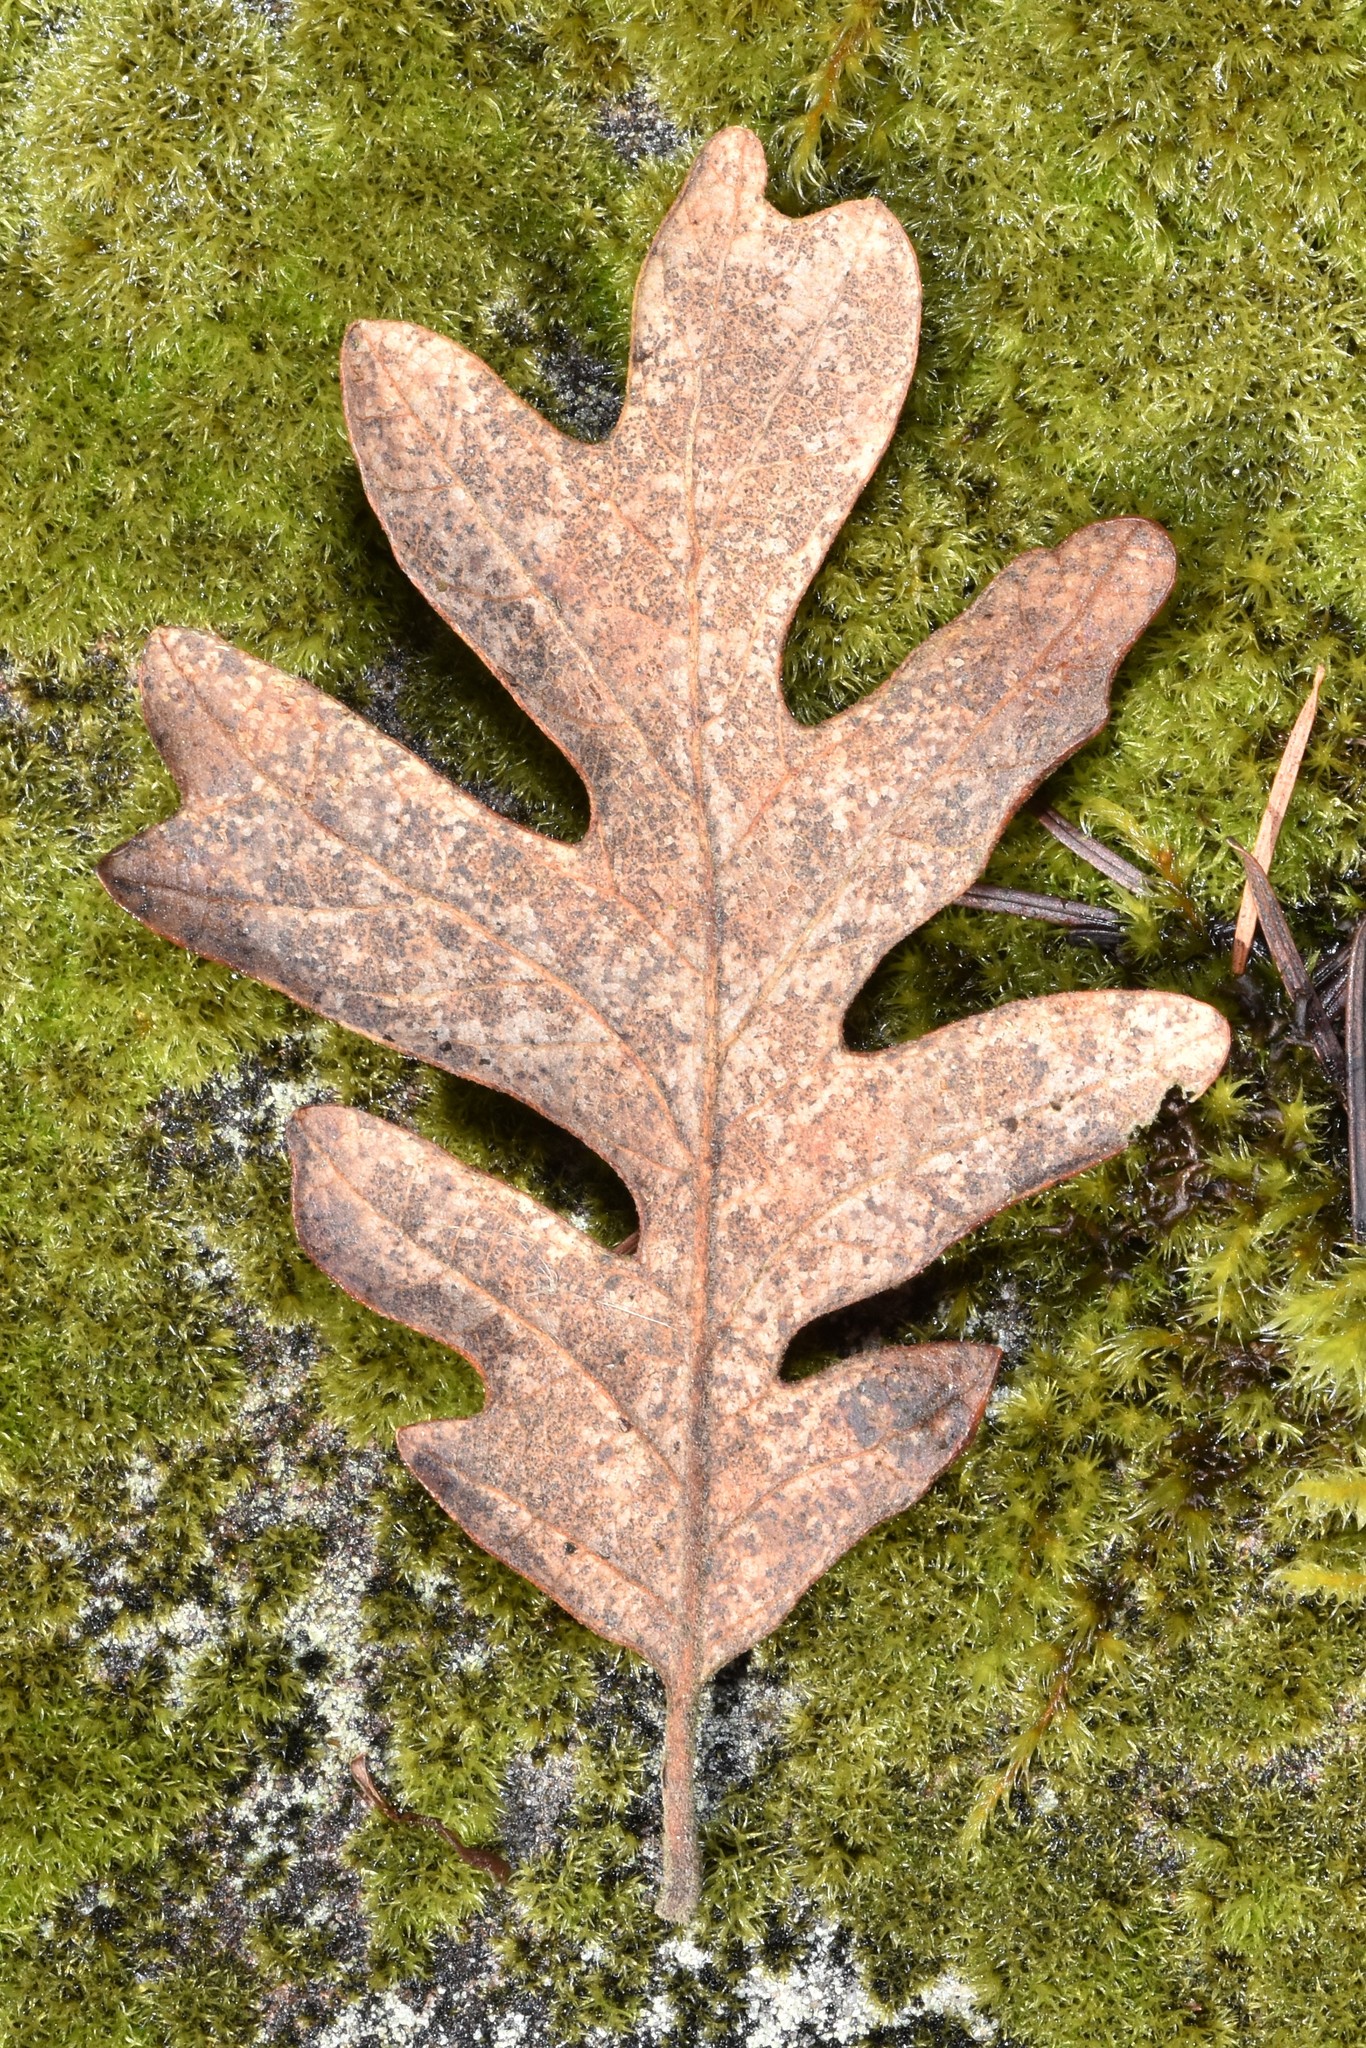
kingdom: Plantae
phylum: Tracheophyta
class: Magnoliopsida
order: Fagales
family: Fagaceae
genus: Quercus
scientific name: Quercus garryana
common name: Garry oak
